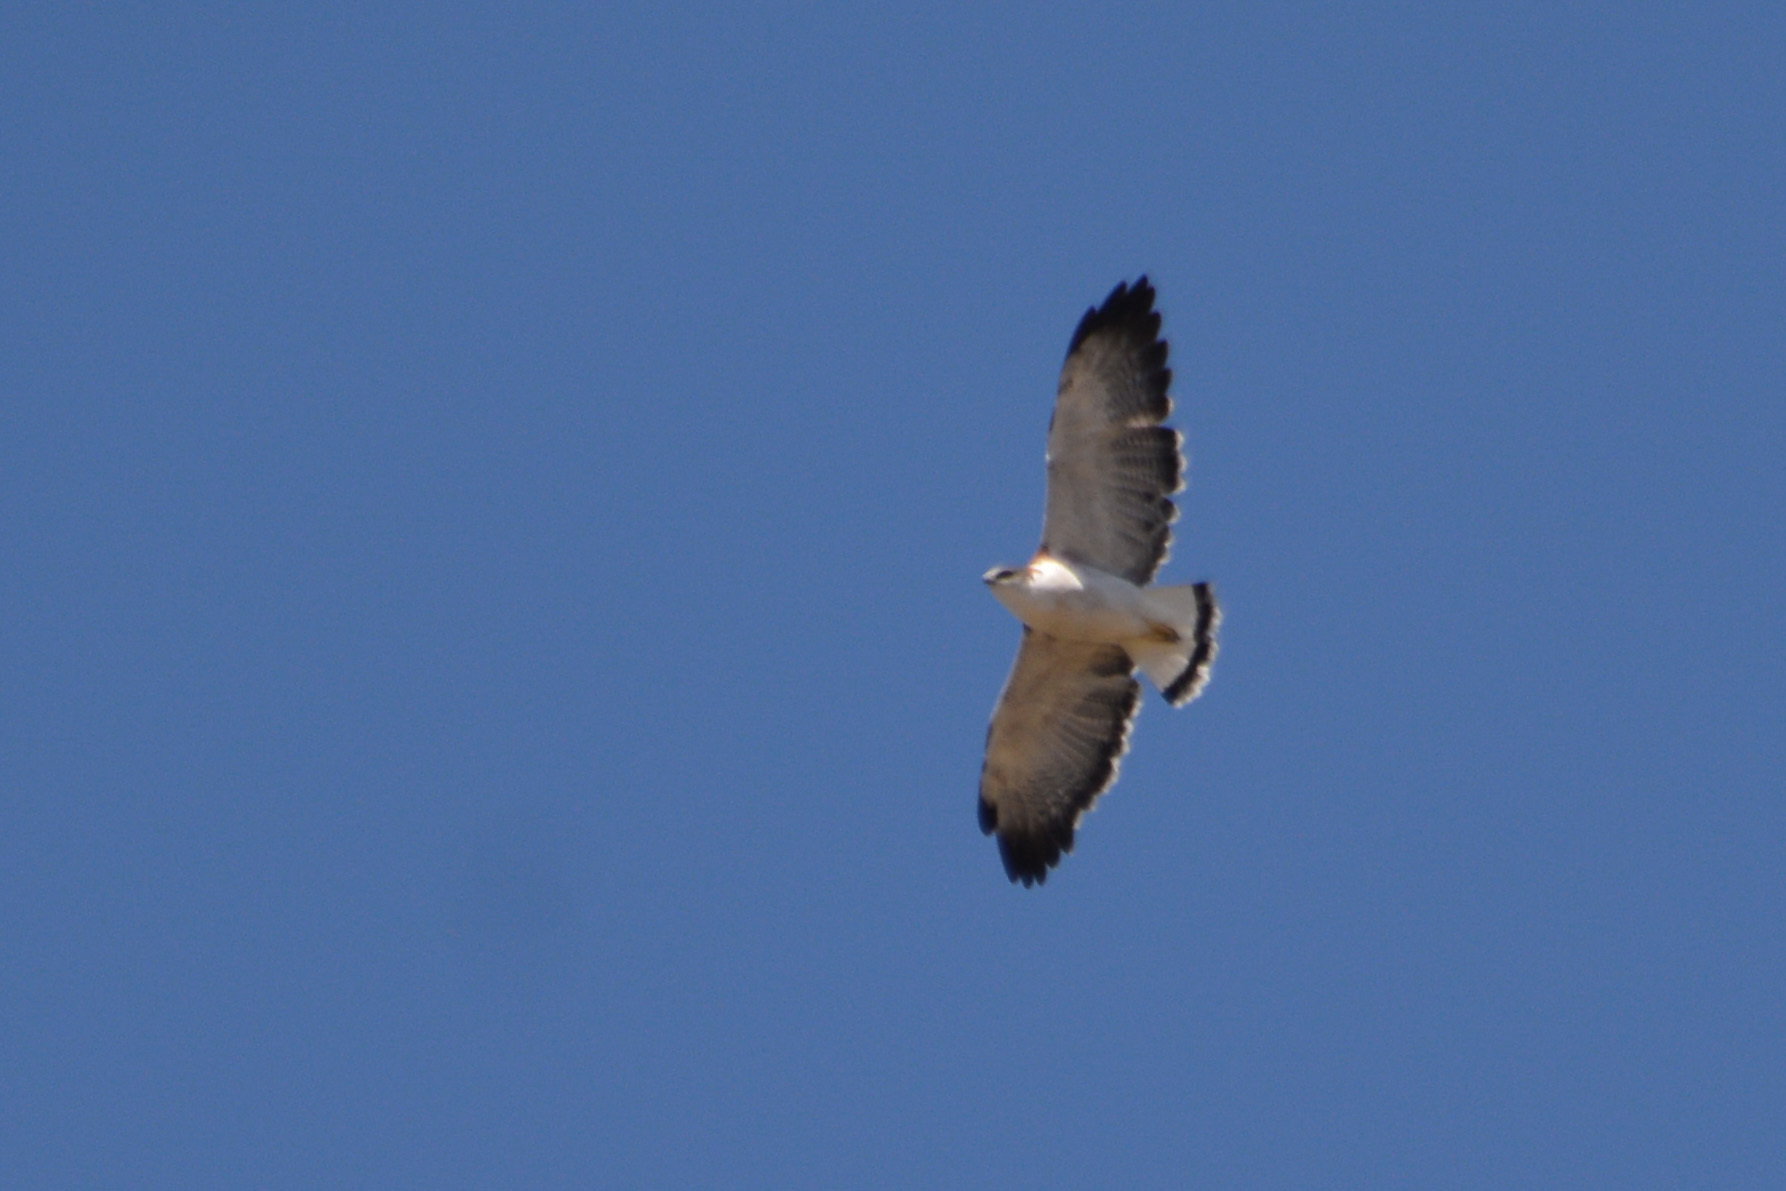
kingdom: Animalia
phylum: Chordata
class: Aves
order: Accipitriformes
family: Accipitridae
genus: Buteo
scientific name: Buteo polyosoma
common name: Variable hawk
